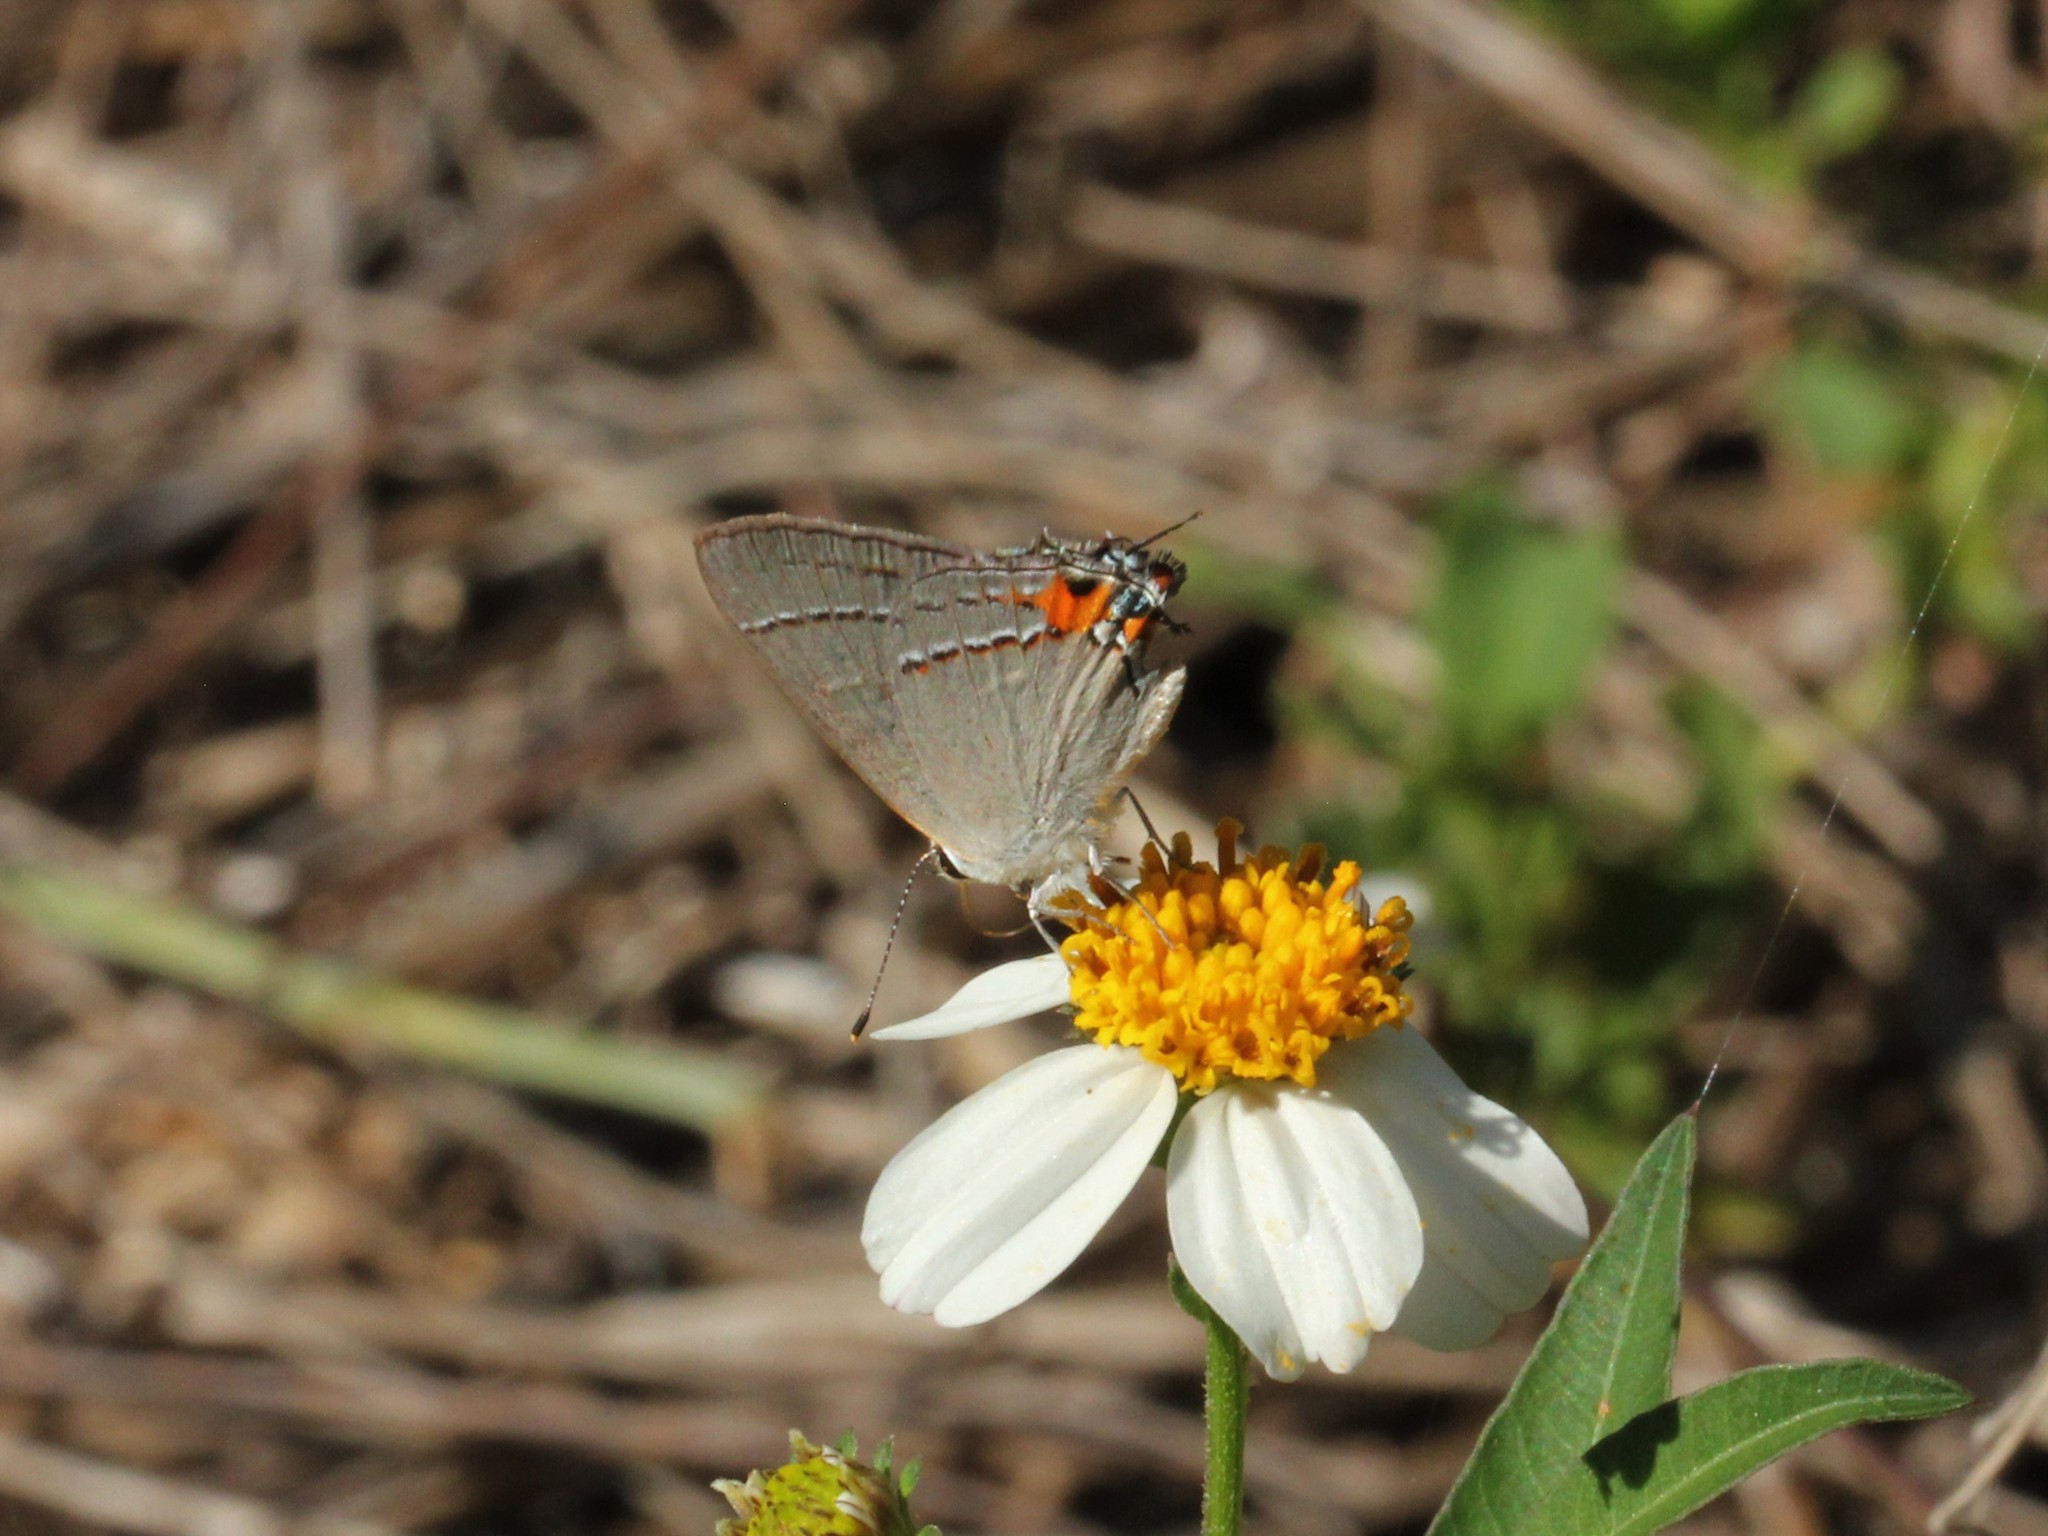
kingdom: Animalia
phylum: Arthropoda
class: Insecta
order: Lepidoptera
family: Lycaenidae
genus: Strymon
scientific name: Strymon melinus
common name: Gray hairstreak
